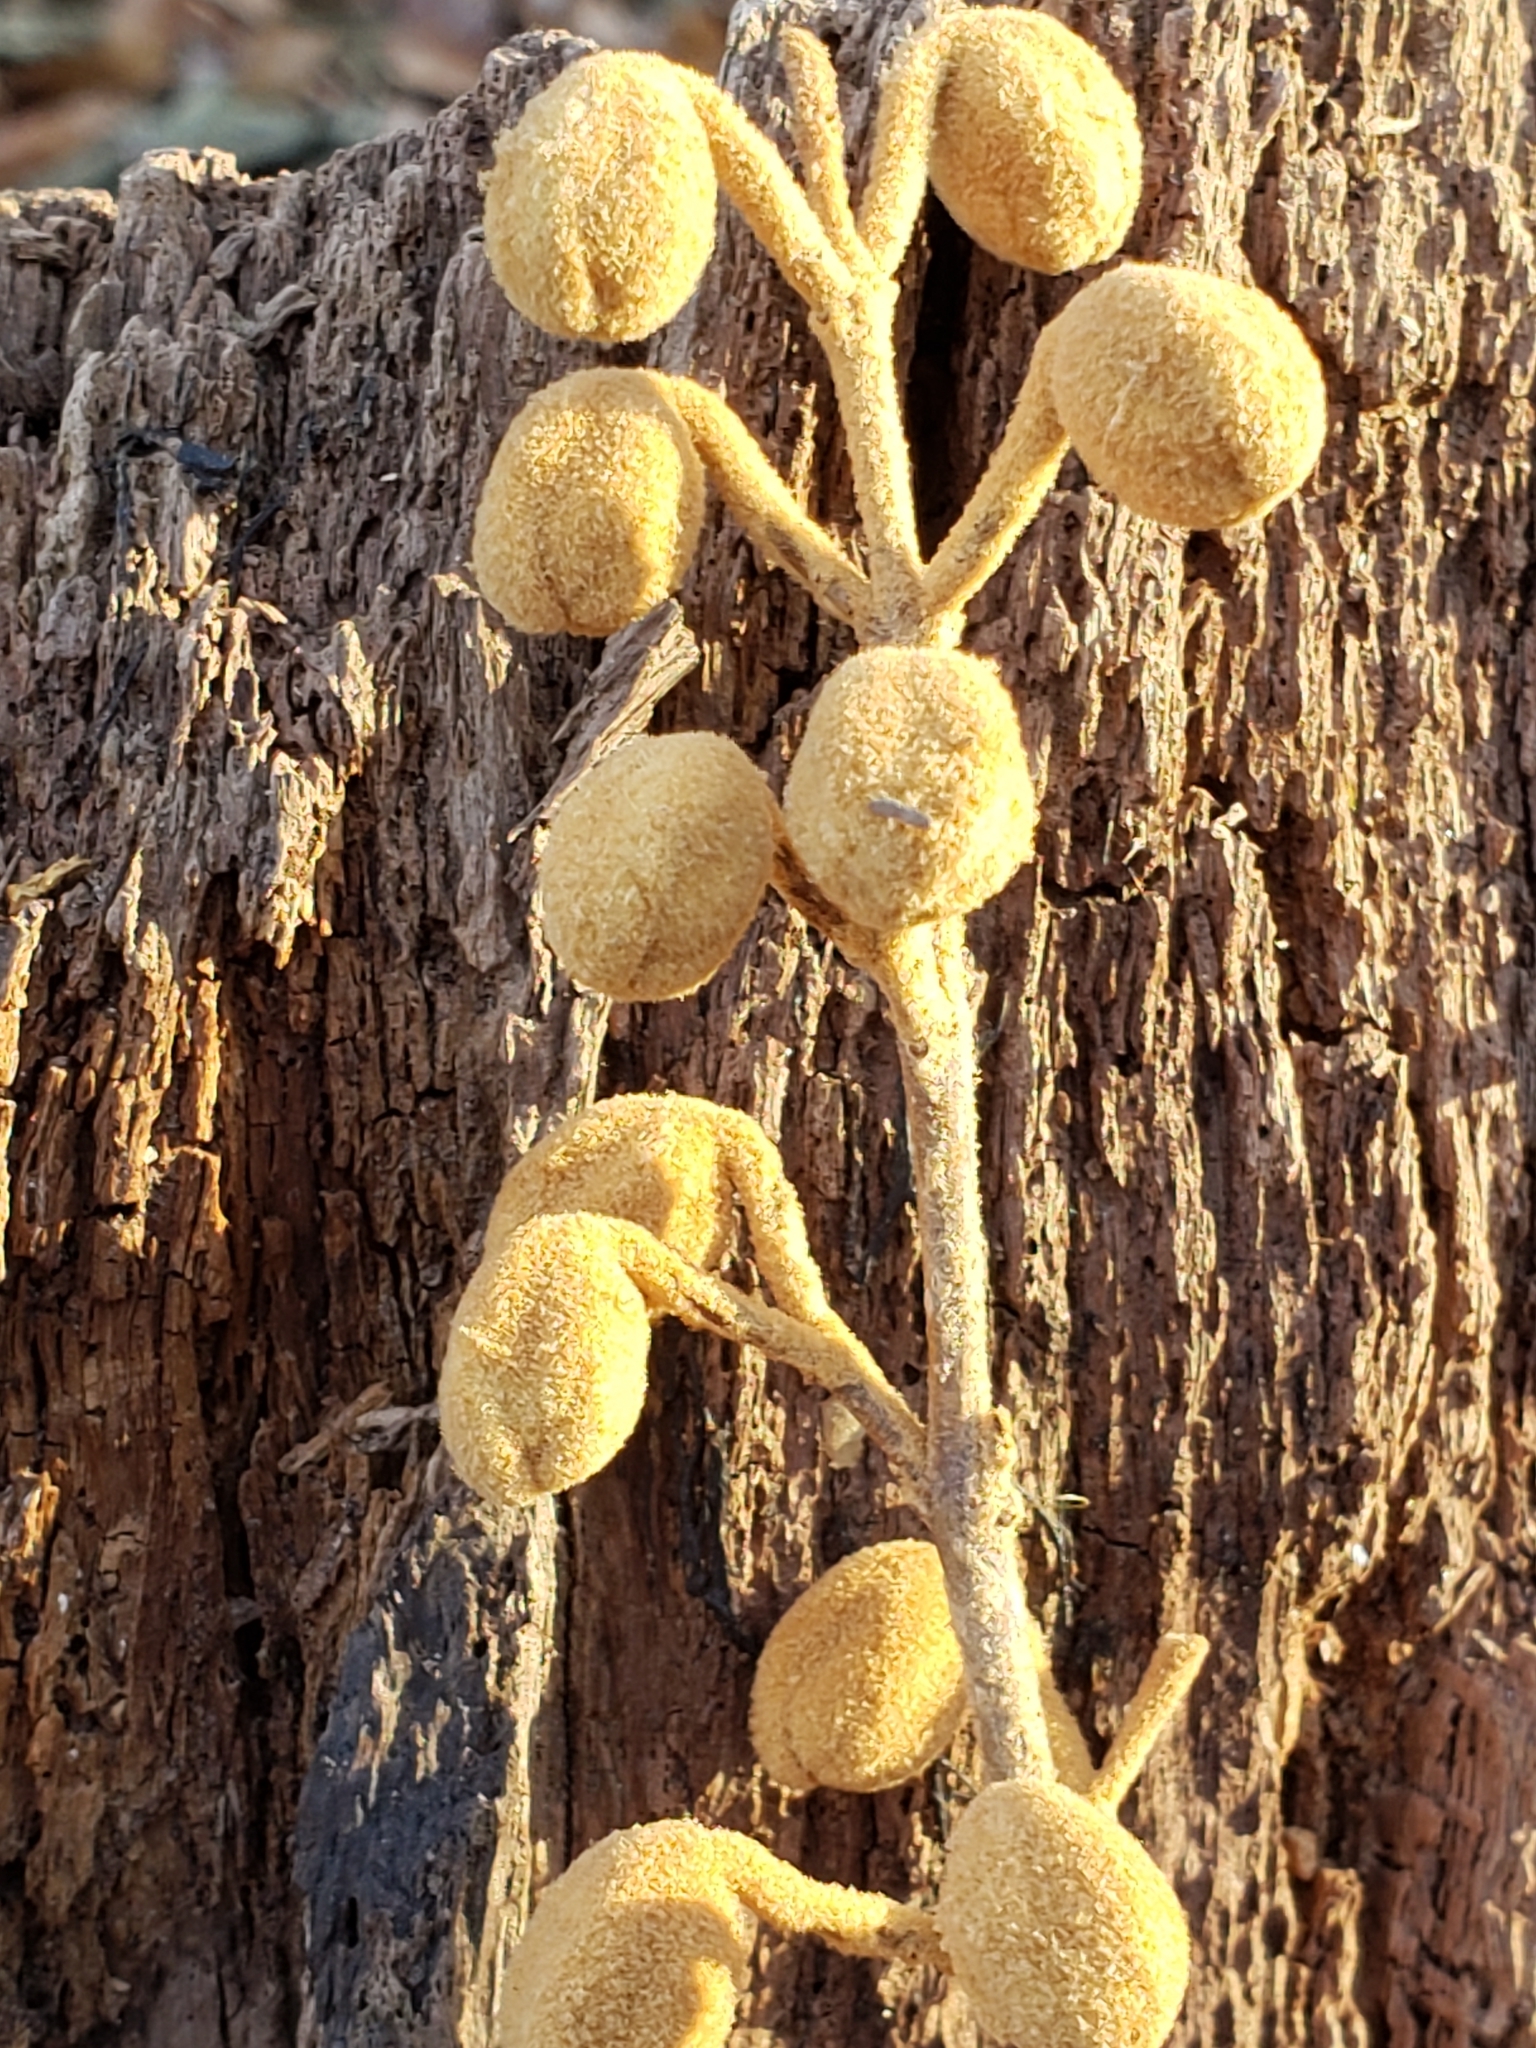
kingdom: Plantae
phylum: Tracheophyta
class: Magnoliopsida
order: Lamiales
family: Paulowniaceae
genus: Paulownia
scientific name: Paulownia tomentosa
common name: Foxglove-tree
